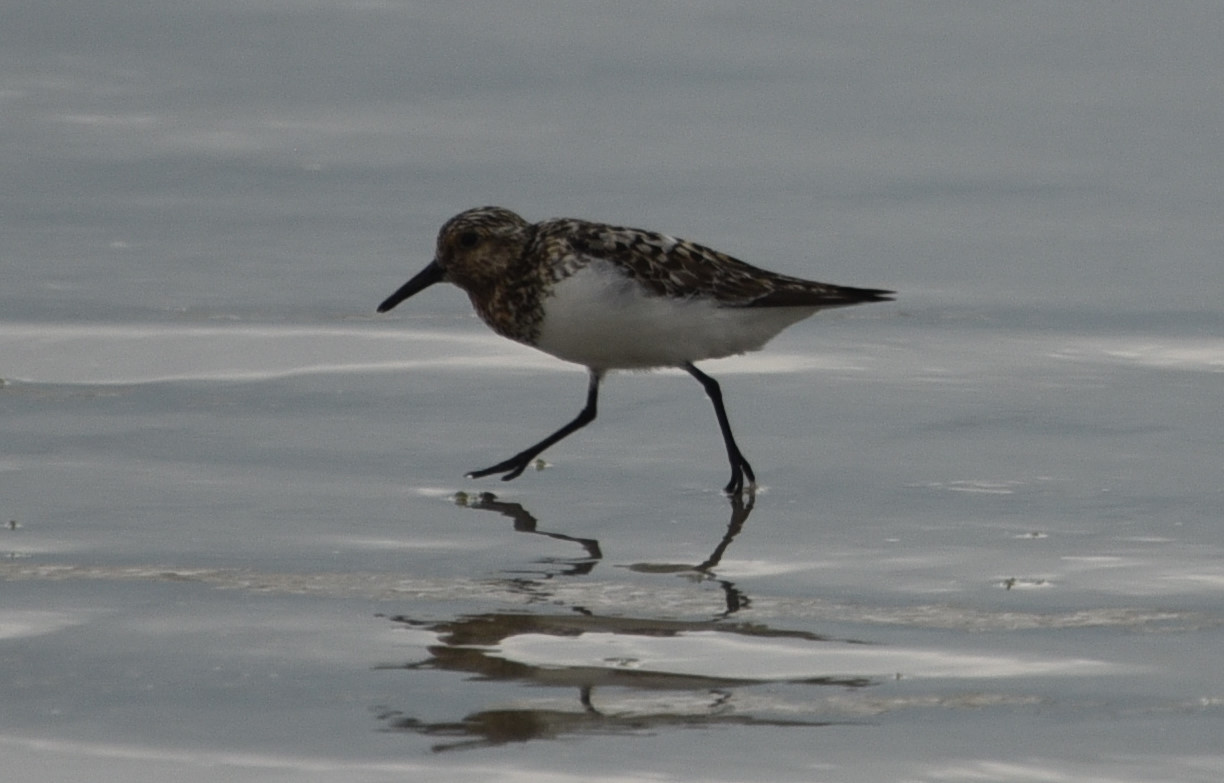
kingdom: Animalia
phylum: Chordata
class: Aves
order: Charadriiformes
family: Scolopacidae
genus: Calidris
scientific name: Calidris alba
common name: Sanderling
